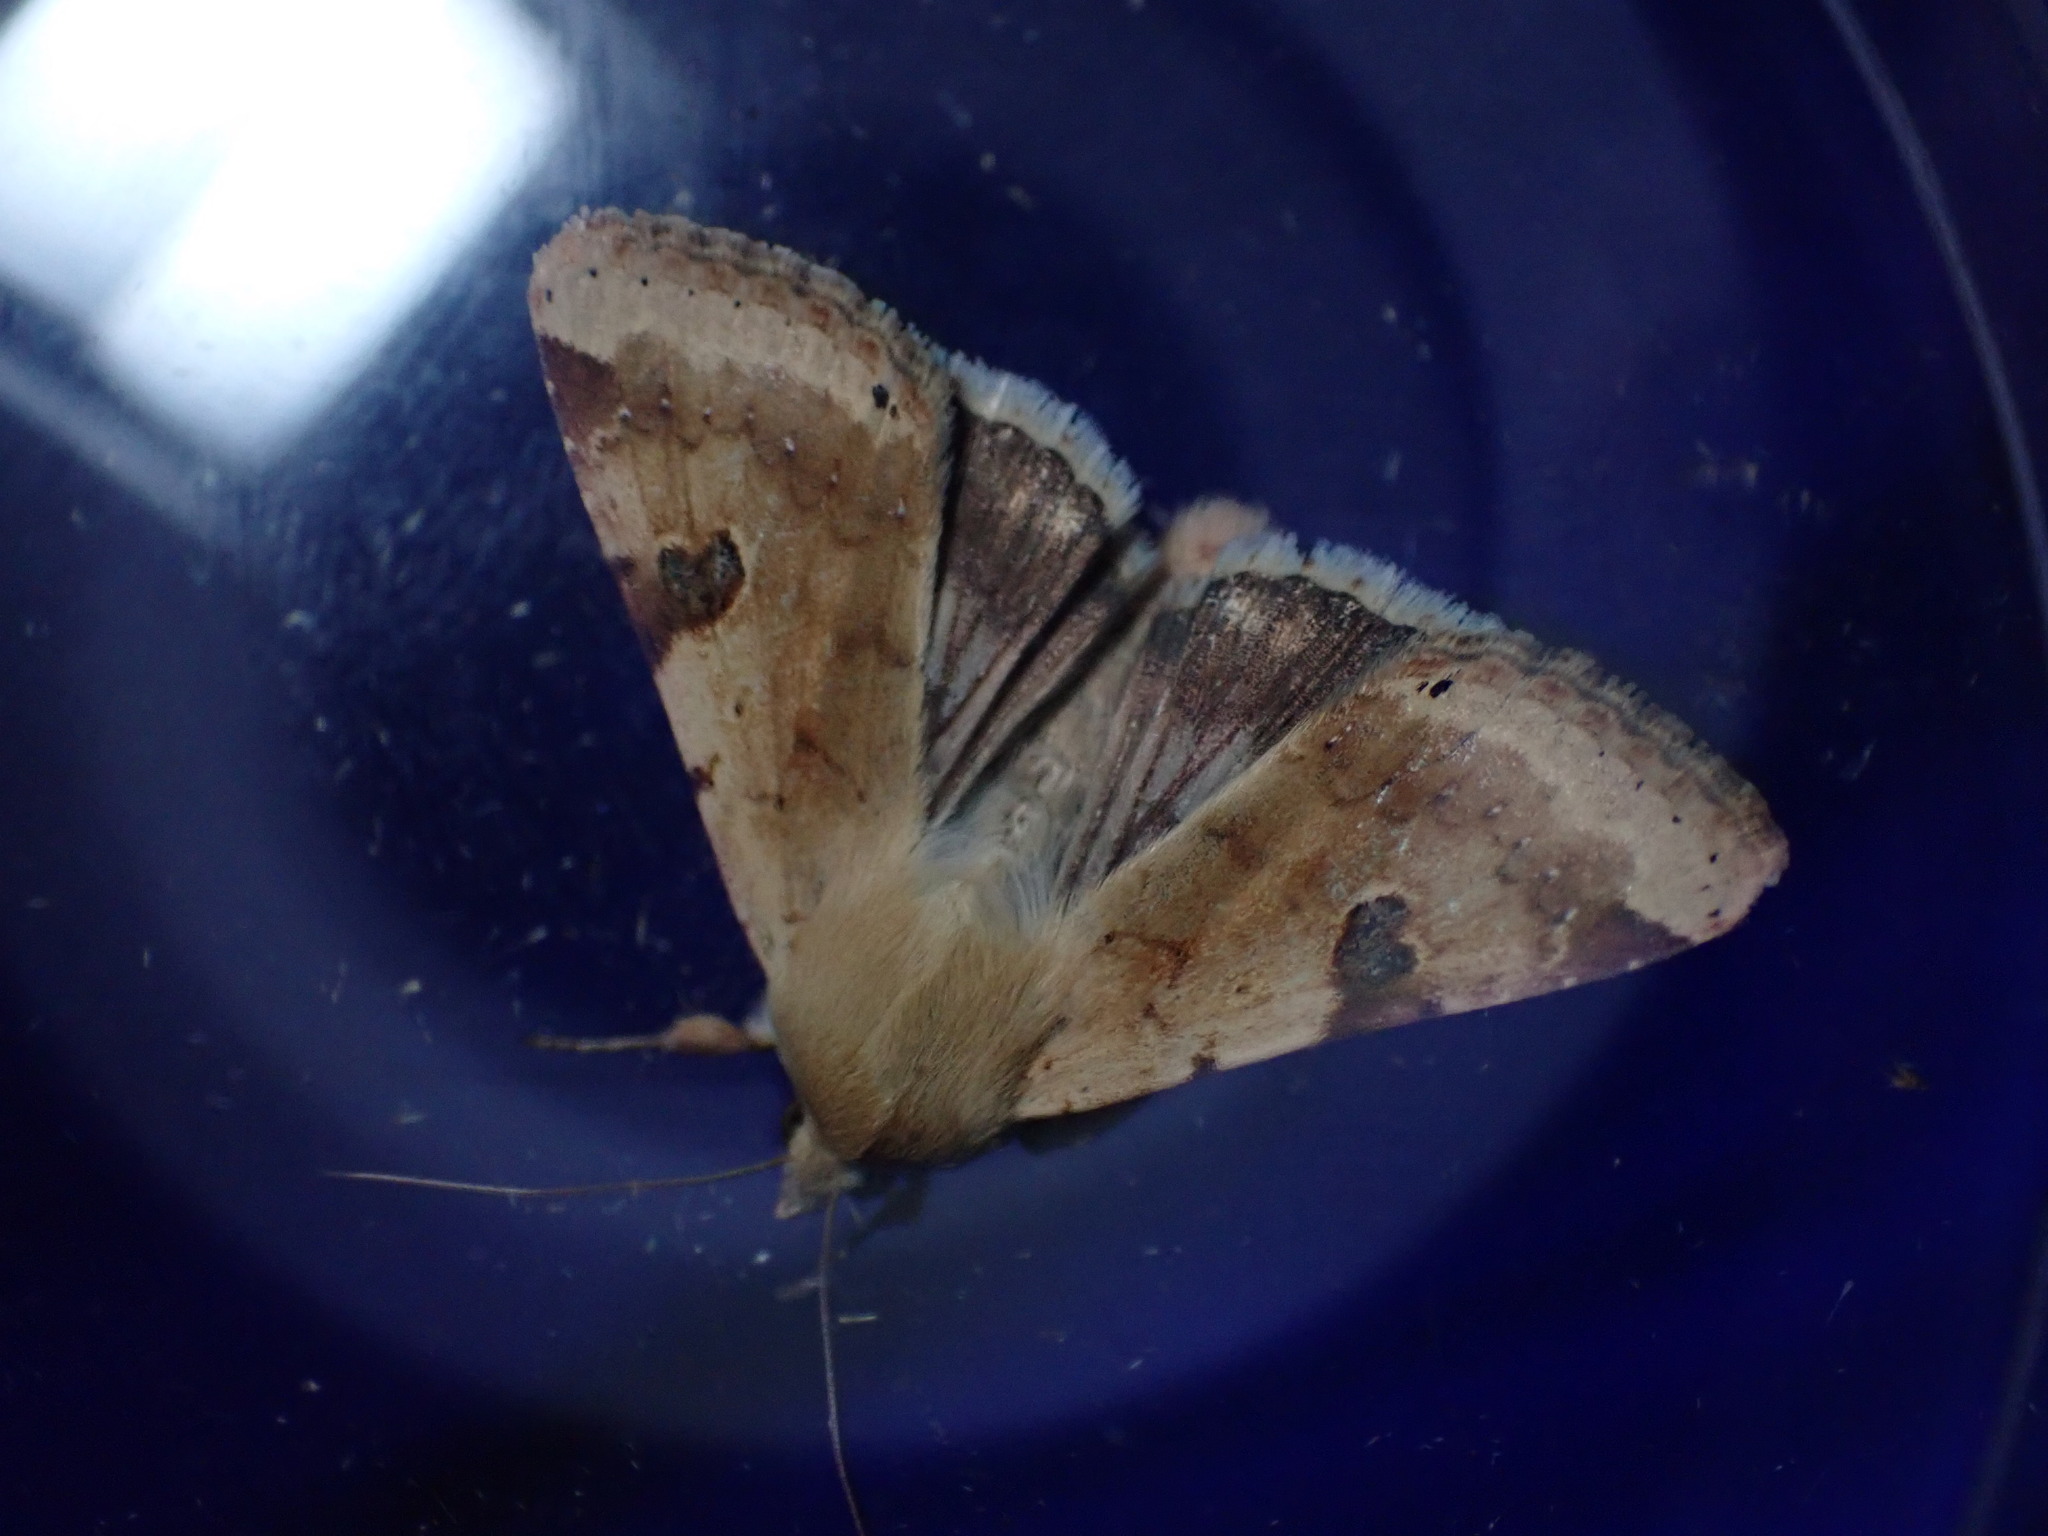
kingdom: Animalia
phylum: Arthropoda
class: Insecta
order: Lepidoptera
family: Noctuidae
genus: Heliothis
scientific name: Heliothis peltigera
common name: Bordered straw
